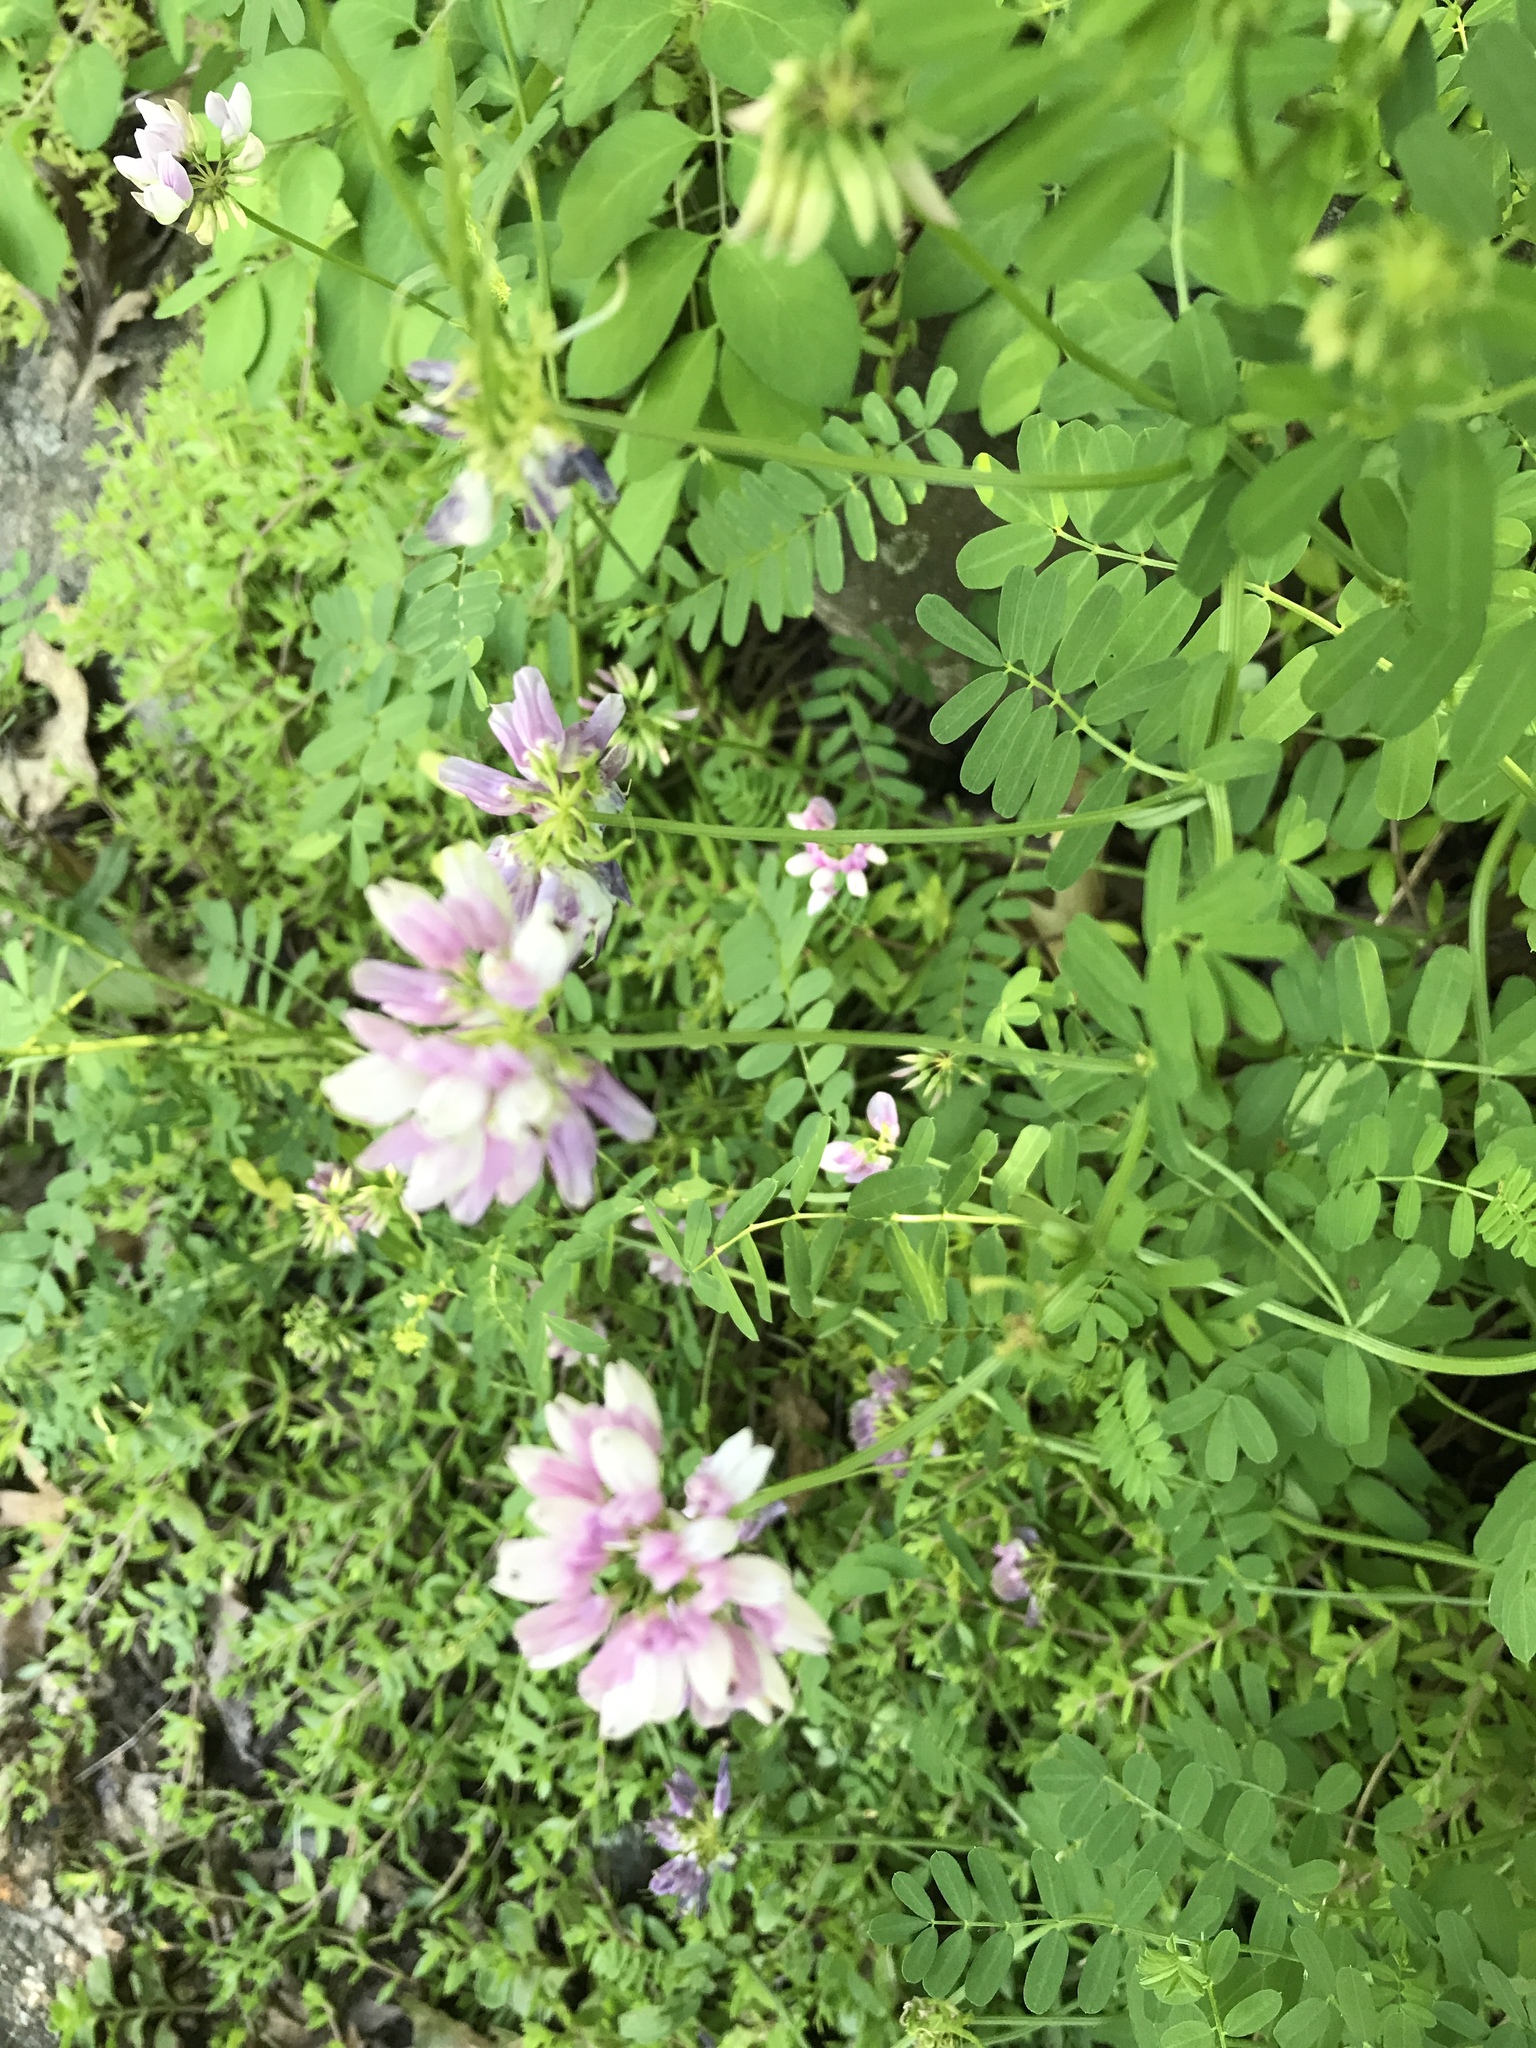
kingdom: Plantae
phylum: Tracheophyta
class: Magnoliopsida
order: Fabales
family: Fabaceae
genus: Coronilla
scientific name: Coronilla varia
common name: Crownvetch
